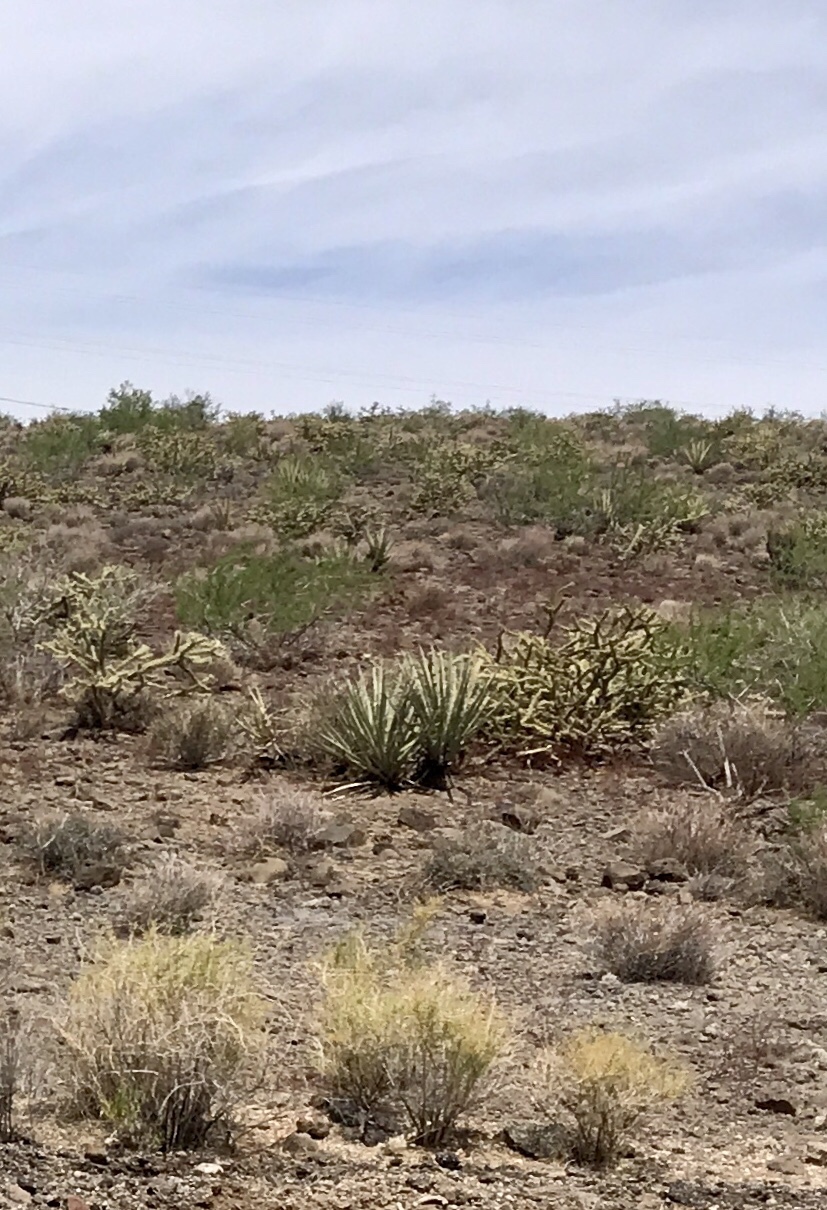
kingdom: Plantae
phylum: Tracheophyta
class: Liliopsida
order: Asparagales
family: Asparagaceae
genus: Yucca
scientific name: Yucca baccata
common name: Banana yucca
